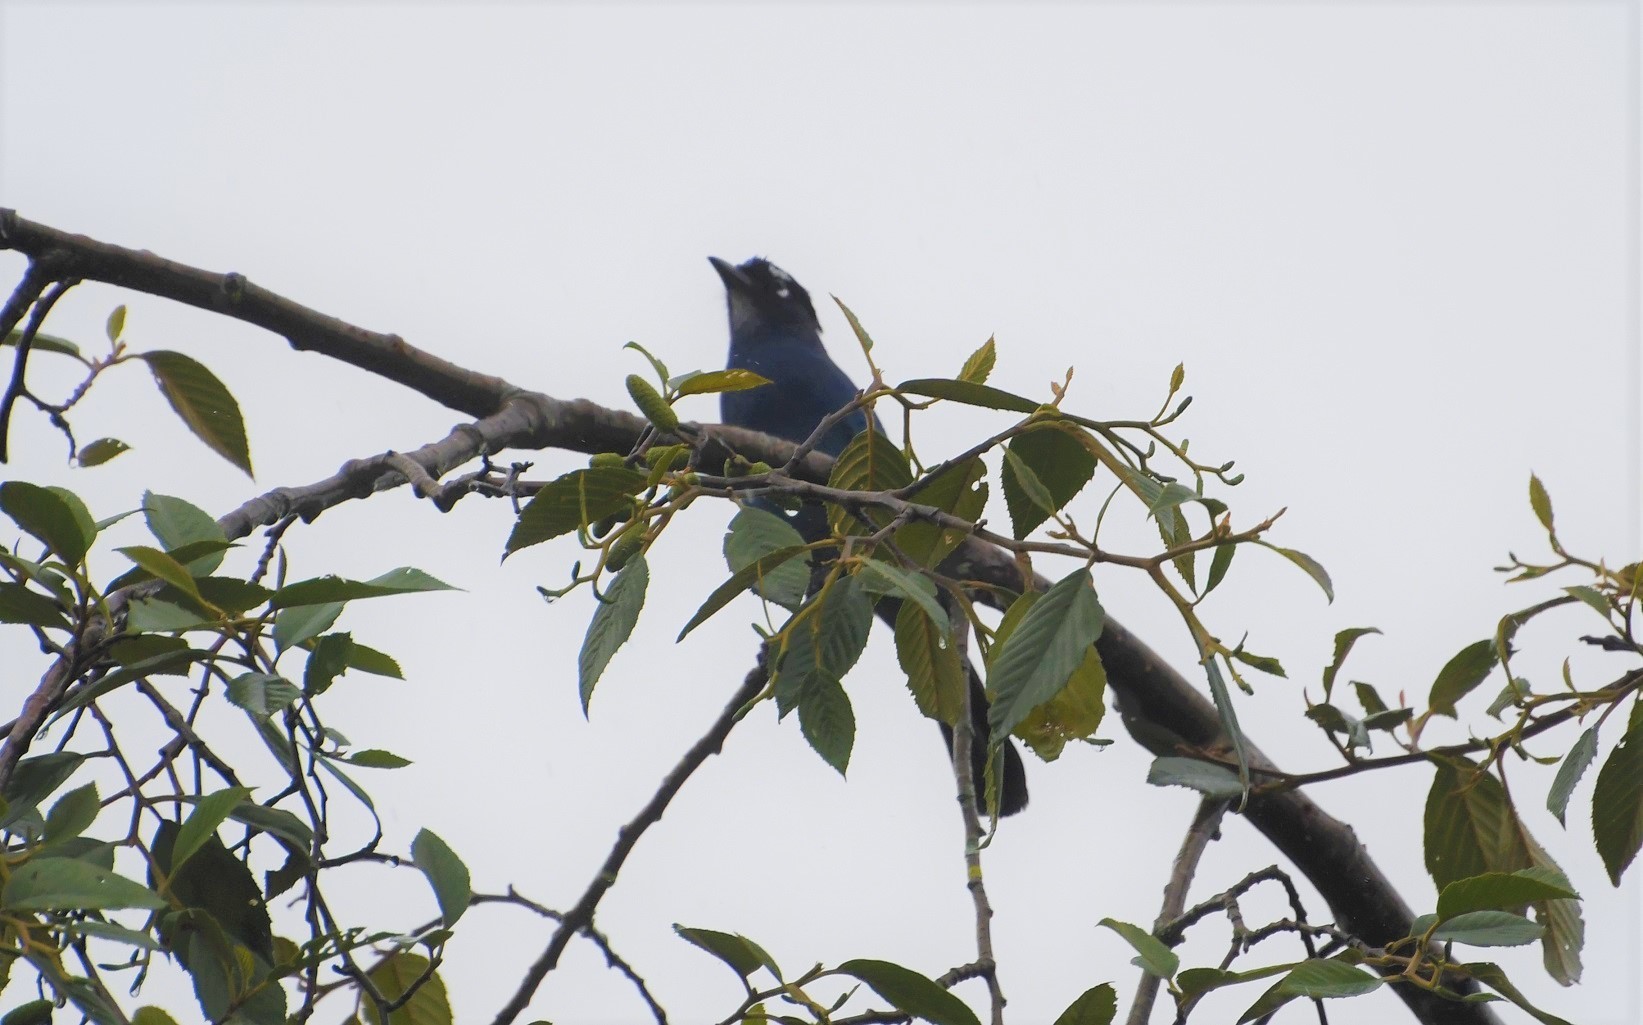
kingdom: Animalia
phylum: Chordata
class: Aves
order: Passeriformes
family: Corvidae
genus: Cyanocitta
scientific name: Cyanocitta stelleri
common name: Steller's jay
